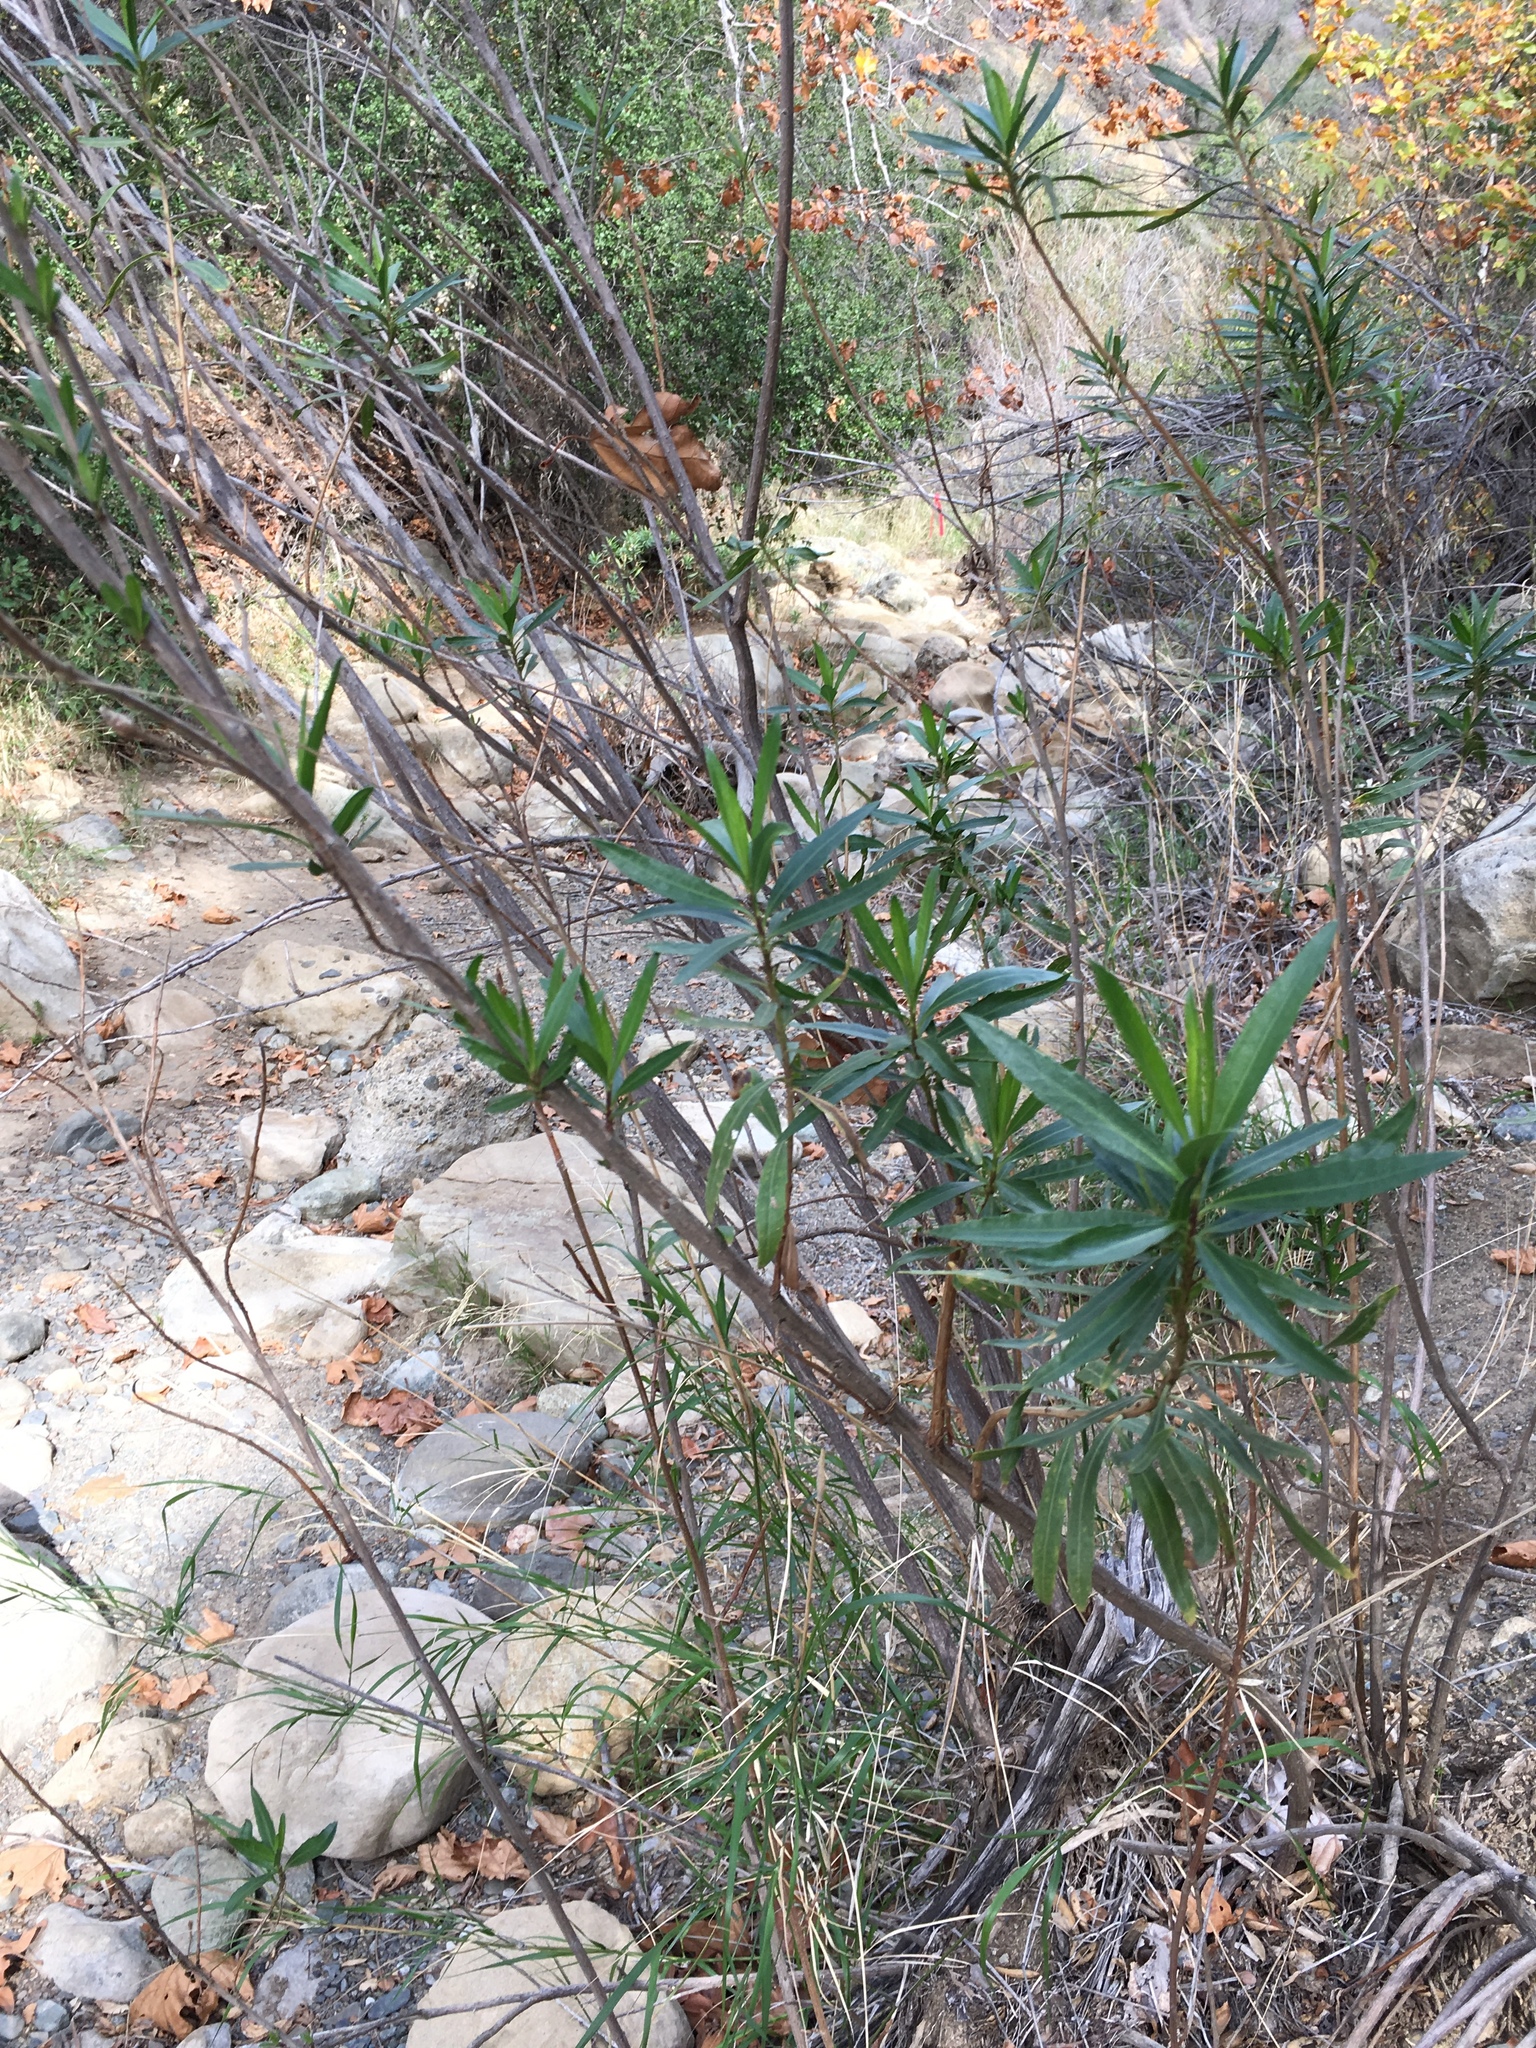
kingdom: Plantae
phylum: Tracheophyta
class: Magnoliopsida
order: Asterales
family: Asteraceae
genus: Baccharis
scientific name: Baccharis salicifolia
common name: Sticky baccharis
